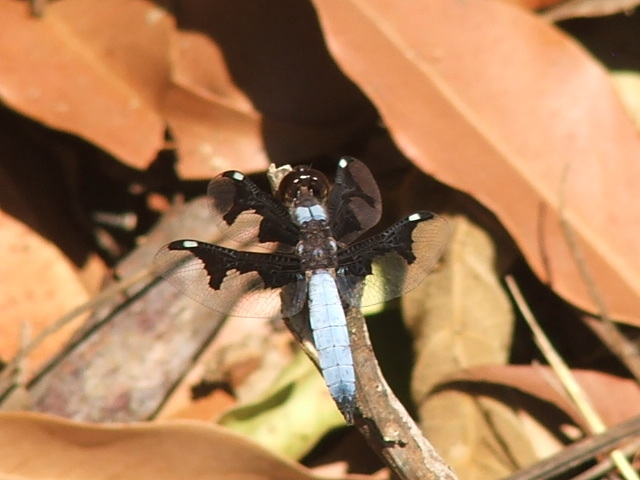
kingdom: Animalia
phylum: Arthropoda
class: Insecta
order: Odonata
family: Libellulidae
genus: Palpopleura
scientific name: Palpopleura portia
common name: Portia widow
